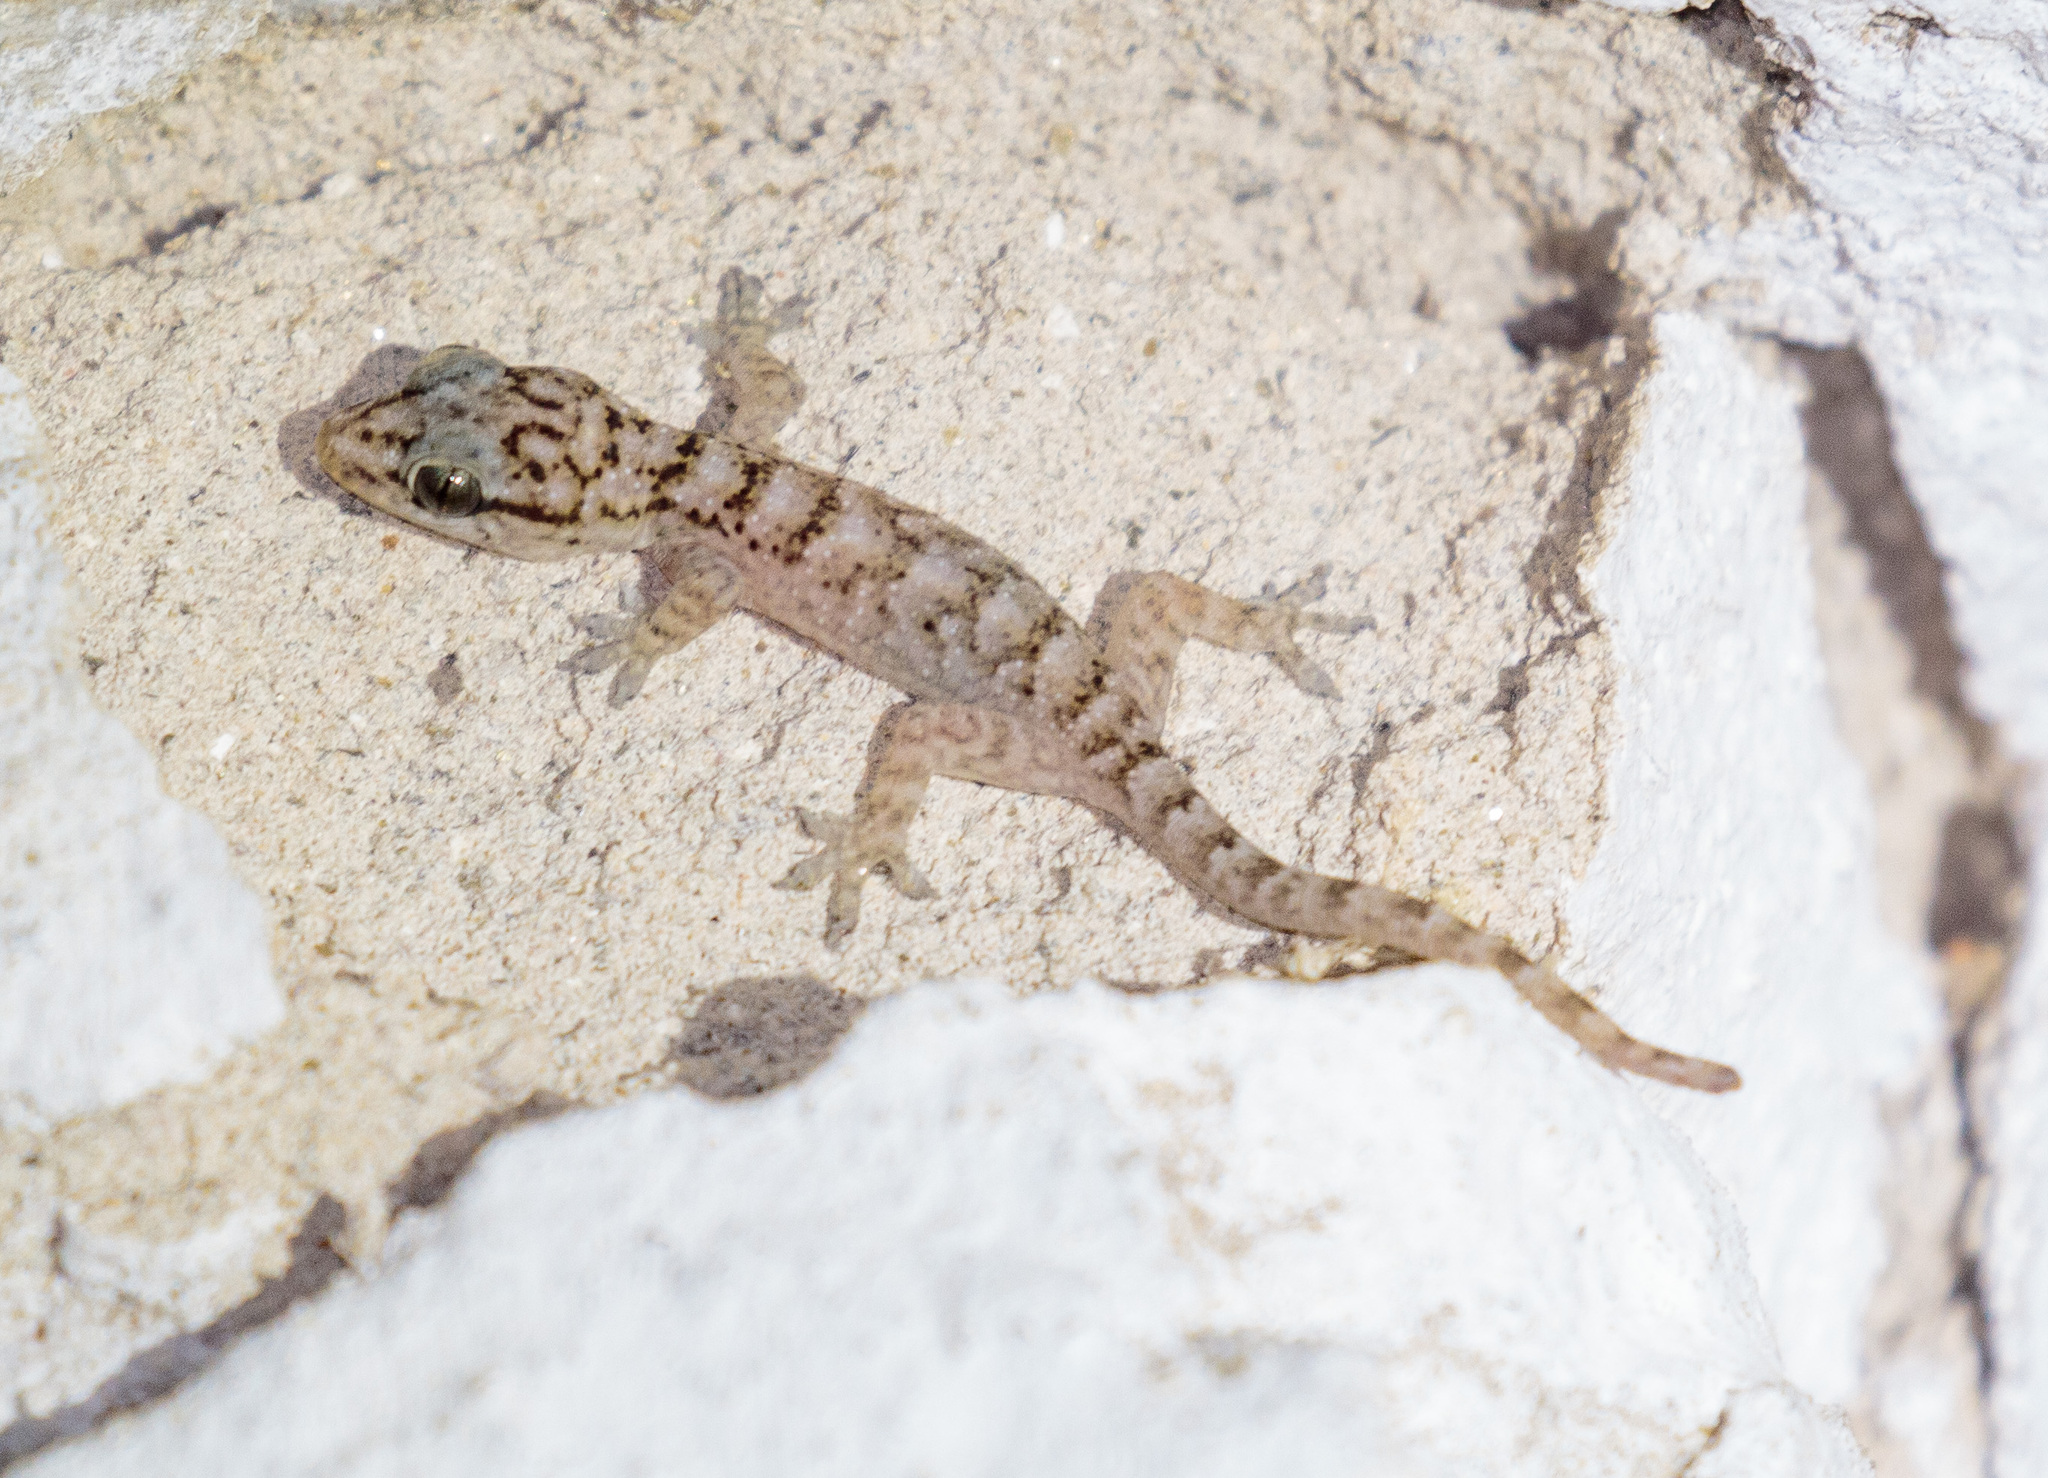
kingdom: Animalia
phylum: Chordata
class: Squamata
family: Phyllodactylidae
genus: Phyllopezus
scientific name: Phyllopezus pollicaris
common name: Brazilian gecko
